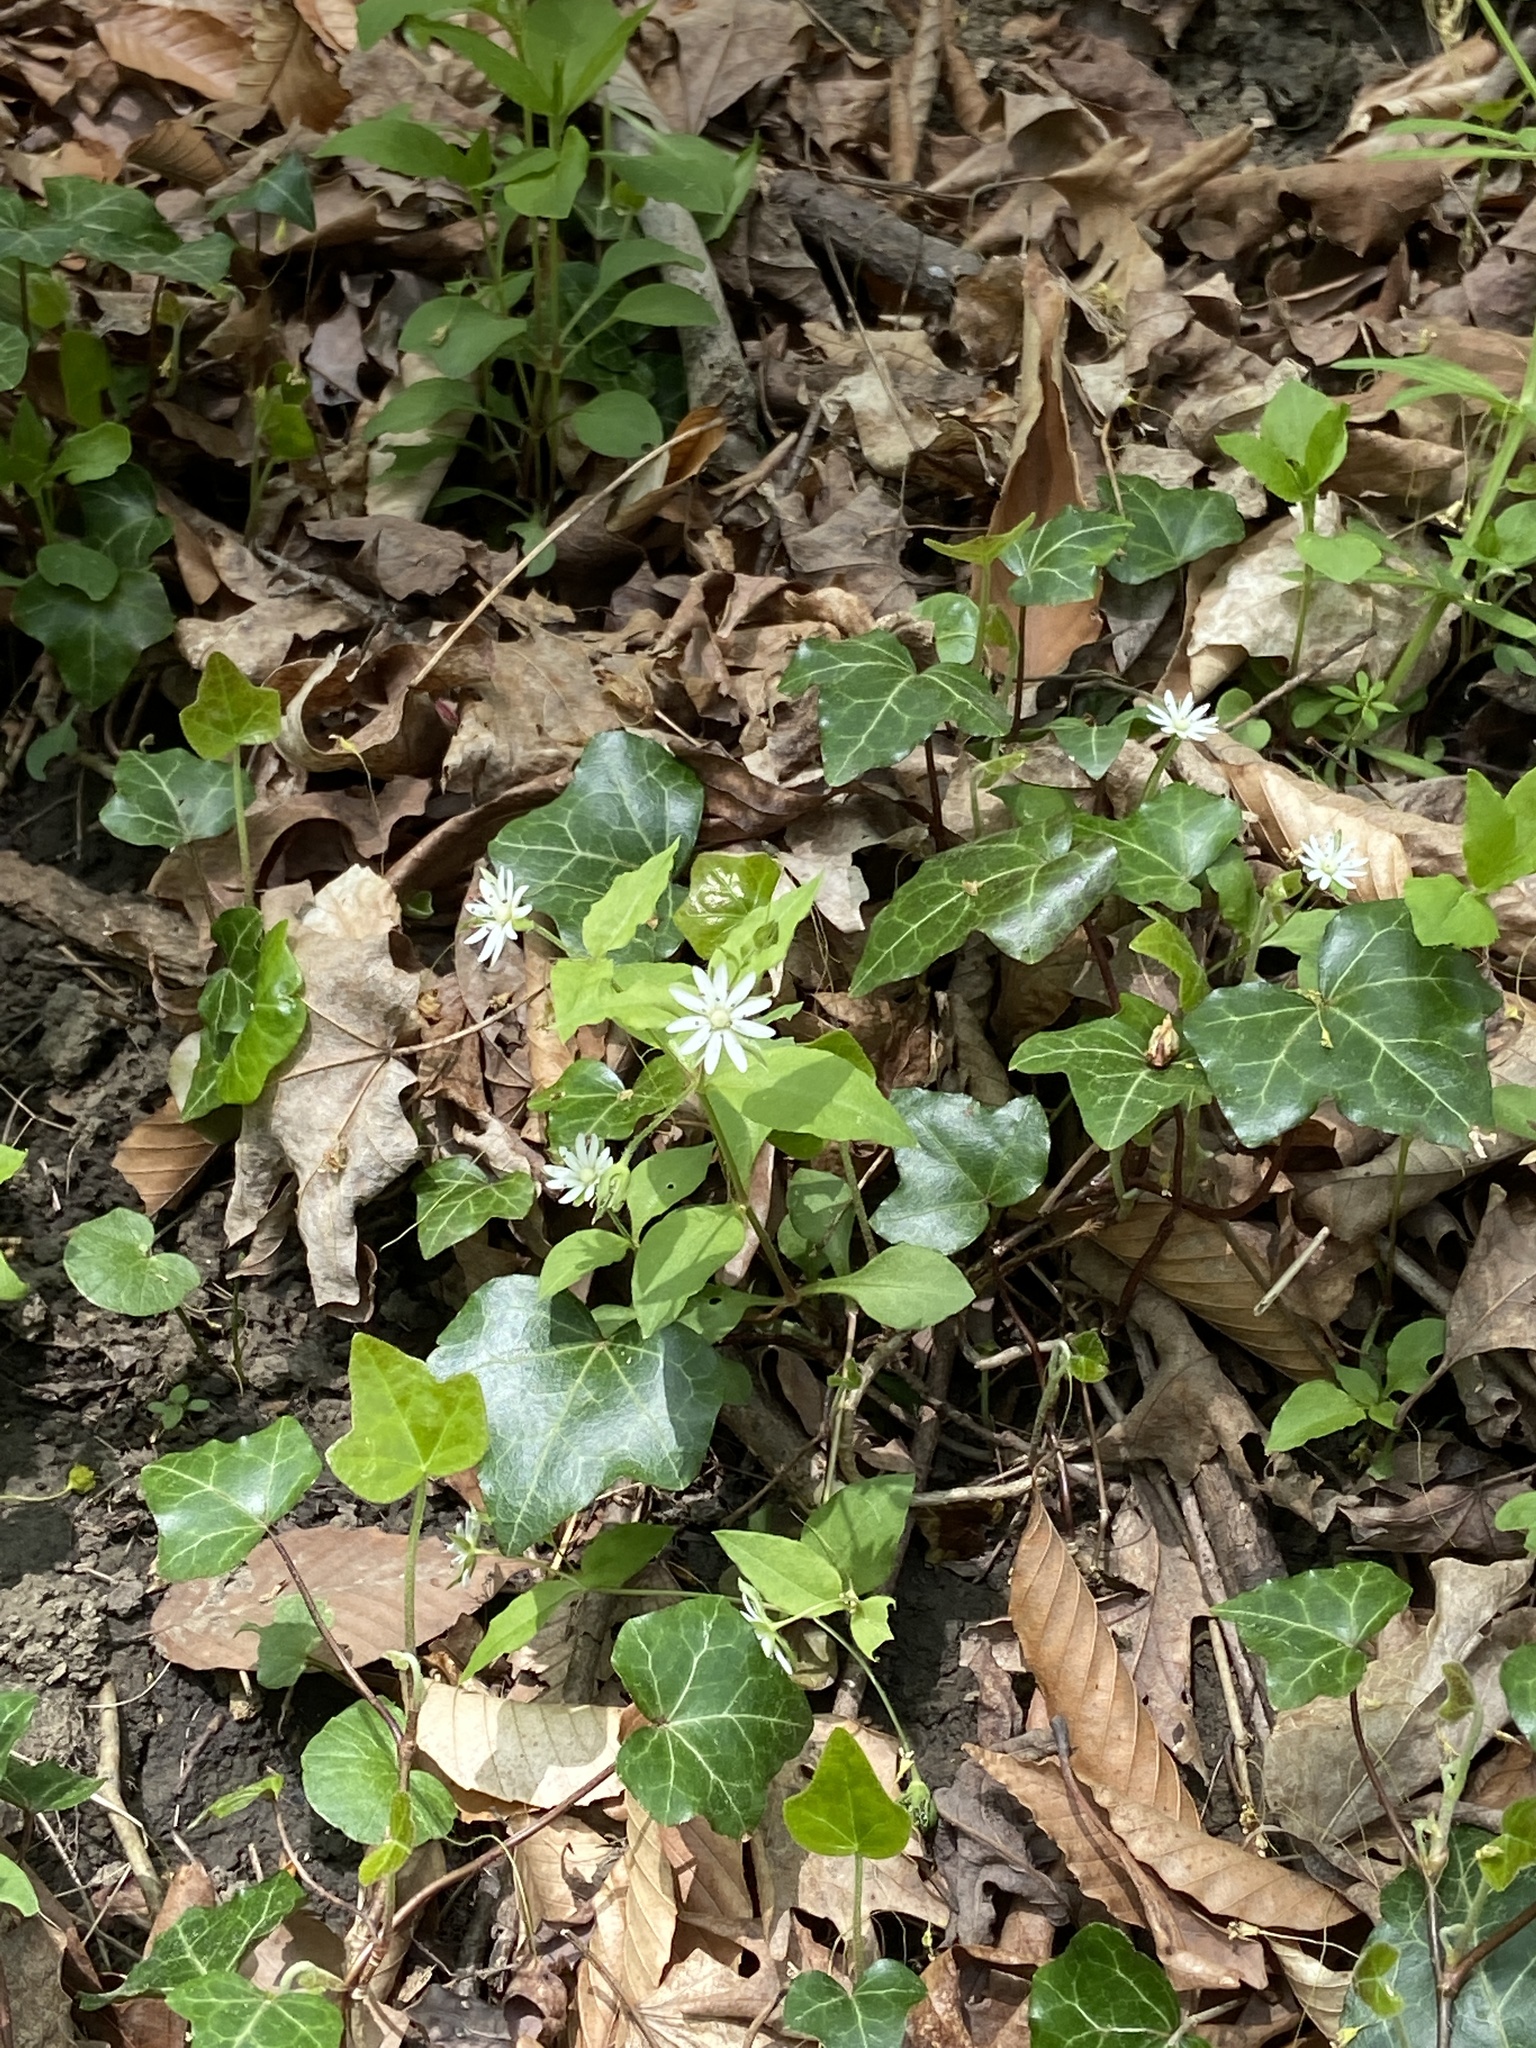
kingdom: Plantae
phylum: Tracheophyta
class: Magnoliopsida
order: Caryophyllales
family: Caryophyllaceae
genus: Stellaria
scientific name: Stellaria corei
